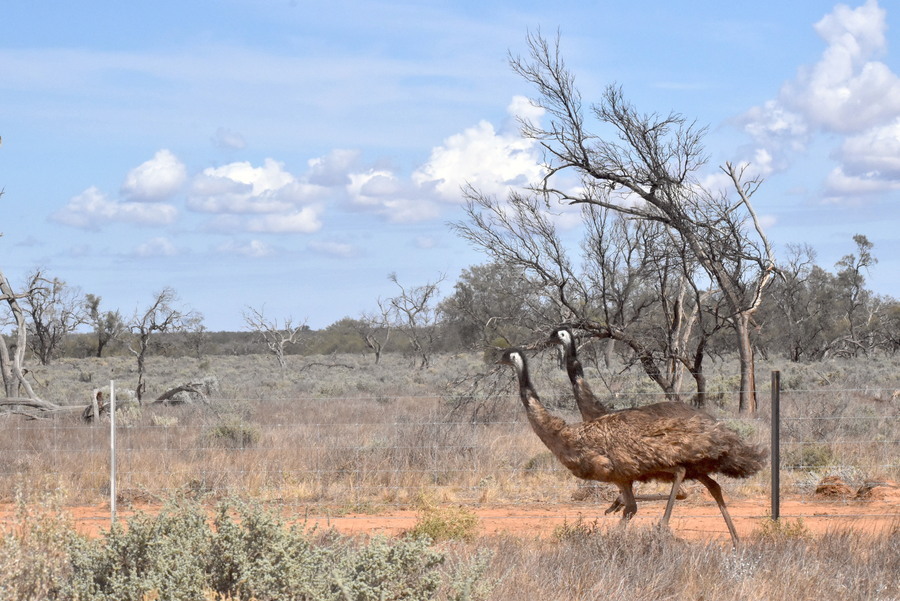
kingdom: Animalia
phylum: Chordata
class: Aves
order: Casuariiformes
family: Dromaiidae
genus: Dromaius
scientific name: Dromaius novaehollandiae
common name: Emu
